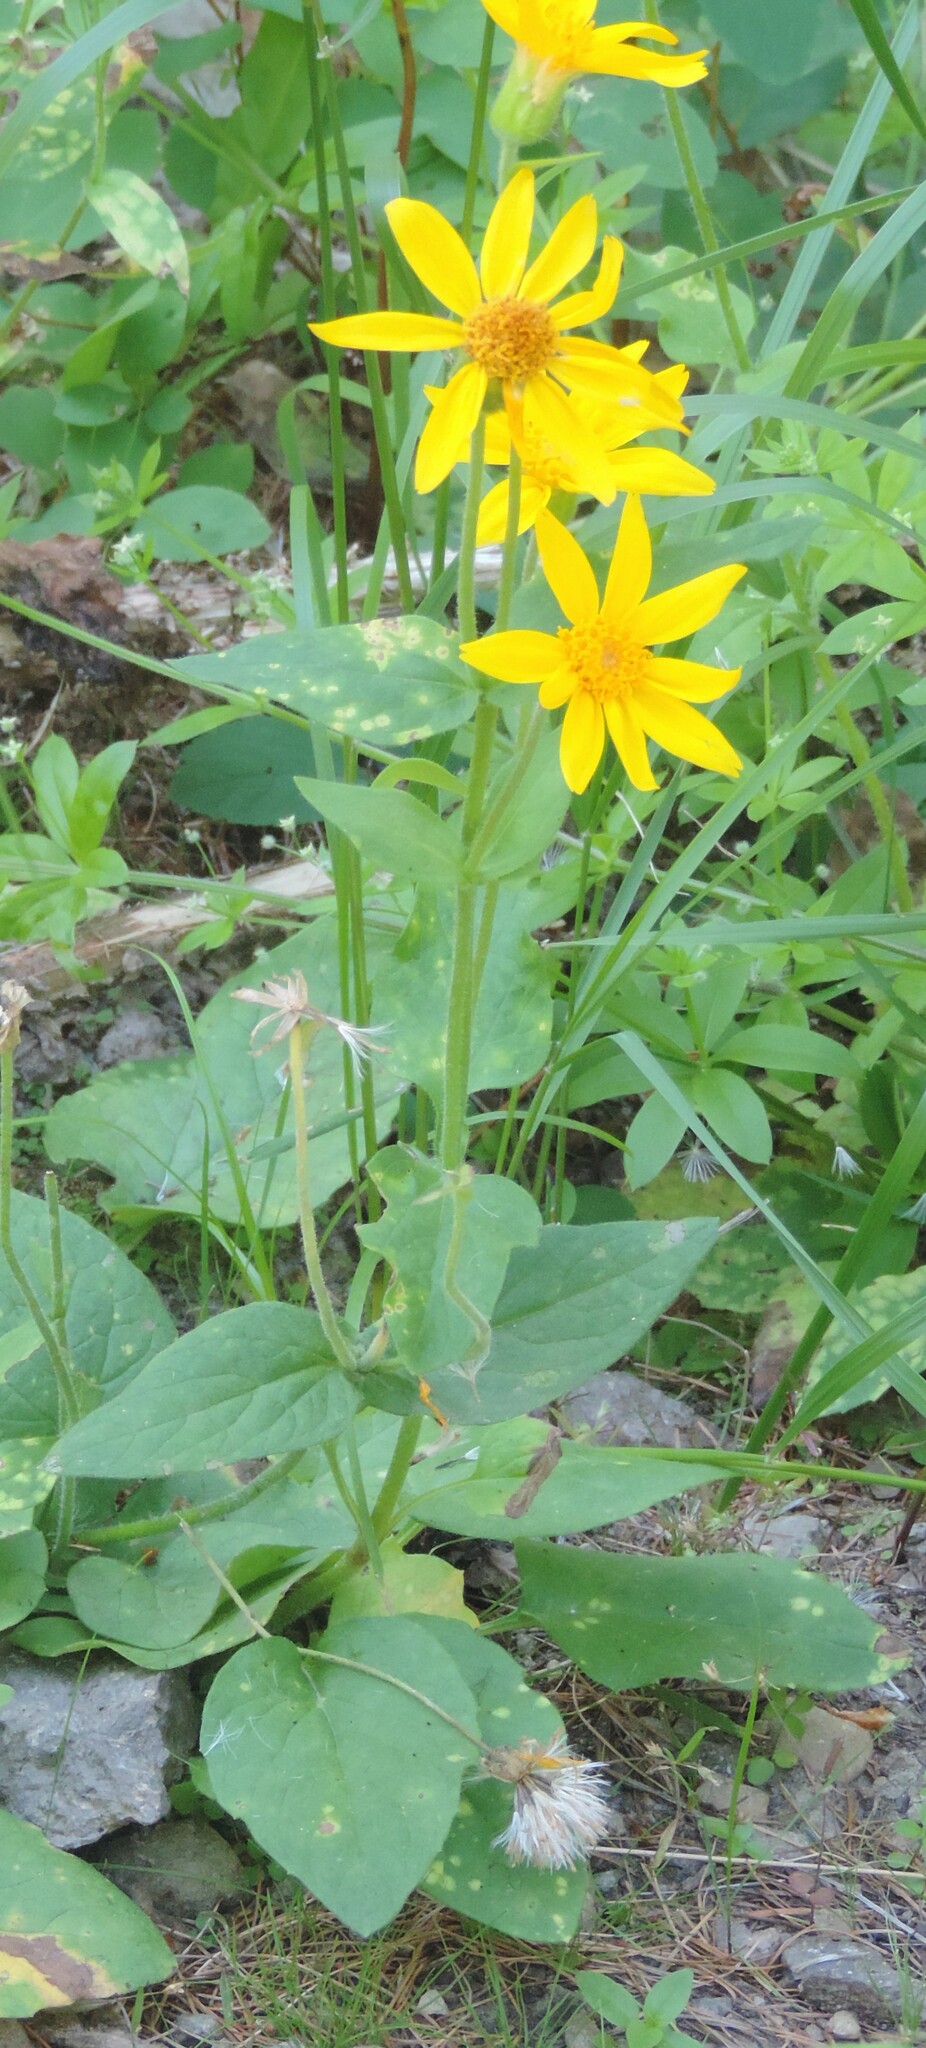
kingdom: Plantae
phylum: Tracheophyta
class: Magnoliopsida
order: Asterales
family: Asteraceae
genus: Arnica
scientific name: Arnica cordifolia
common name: Heart-leaf arnica
